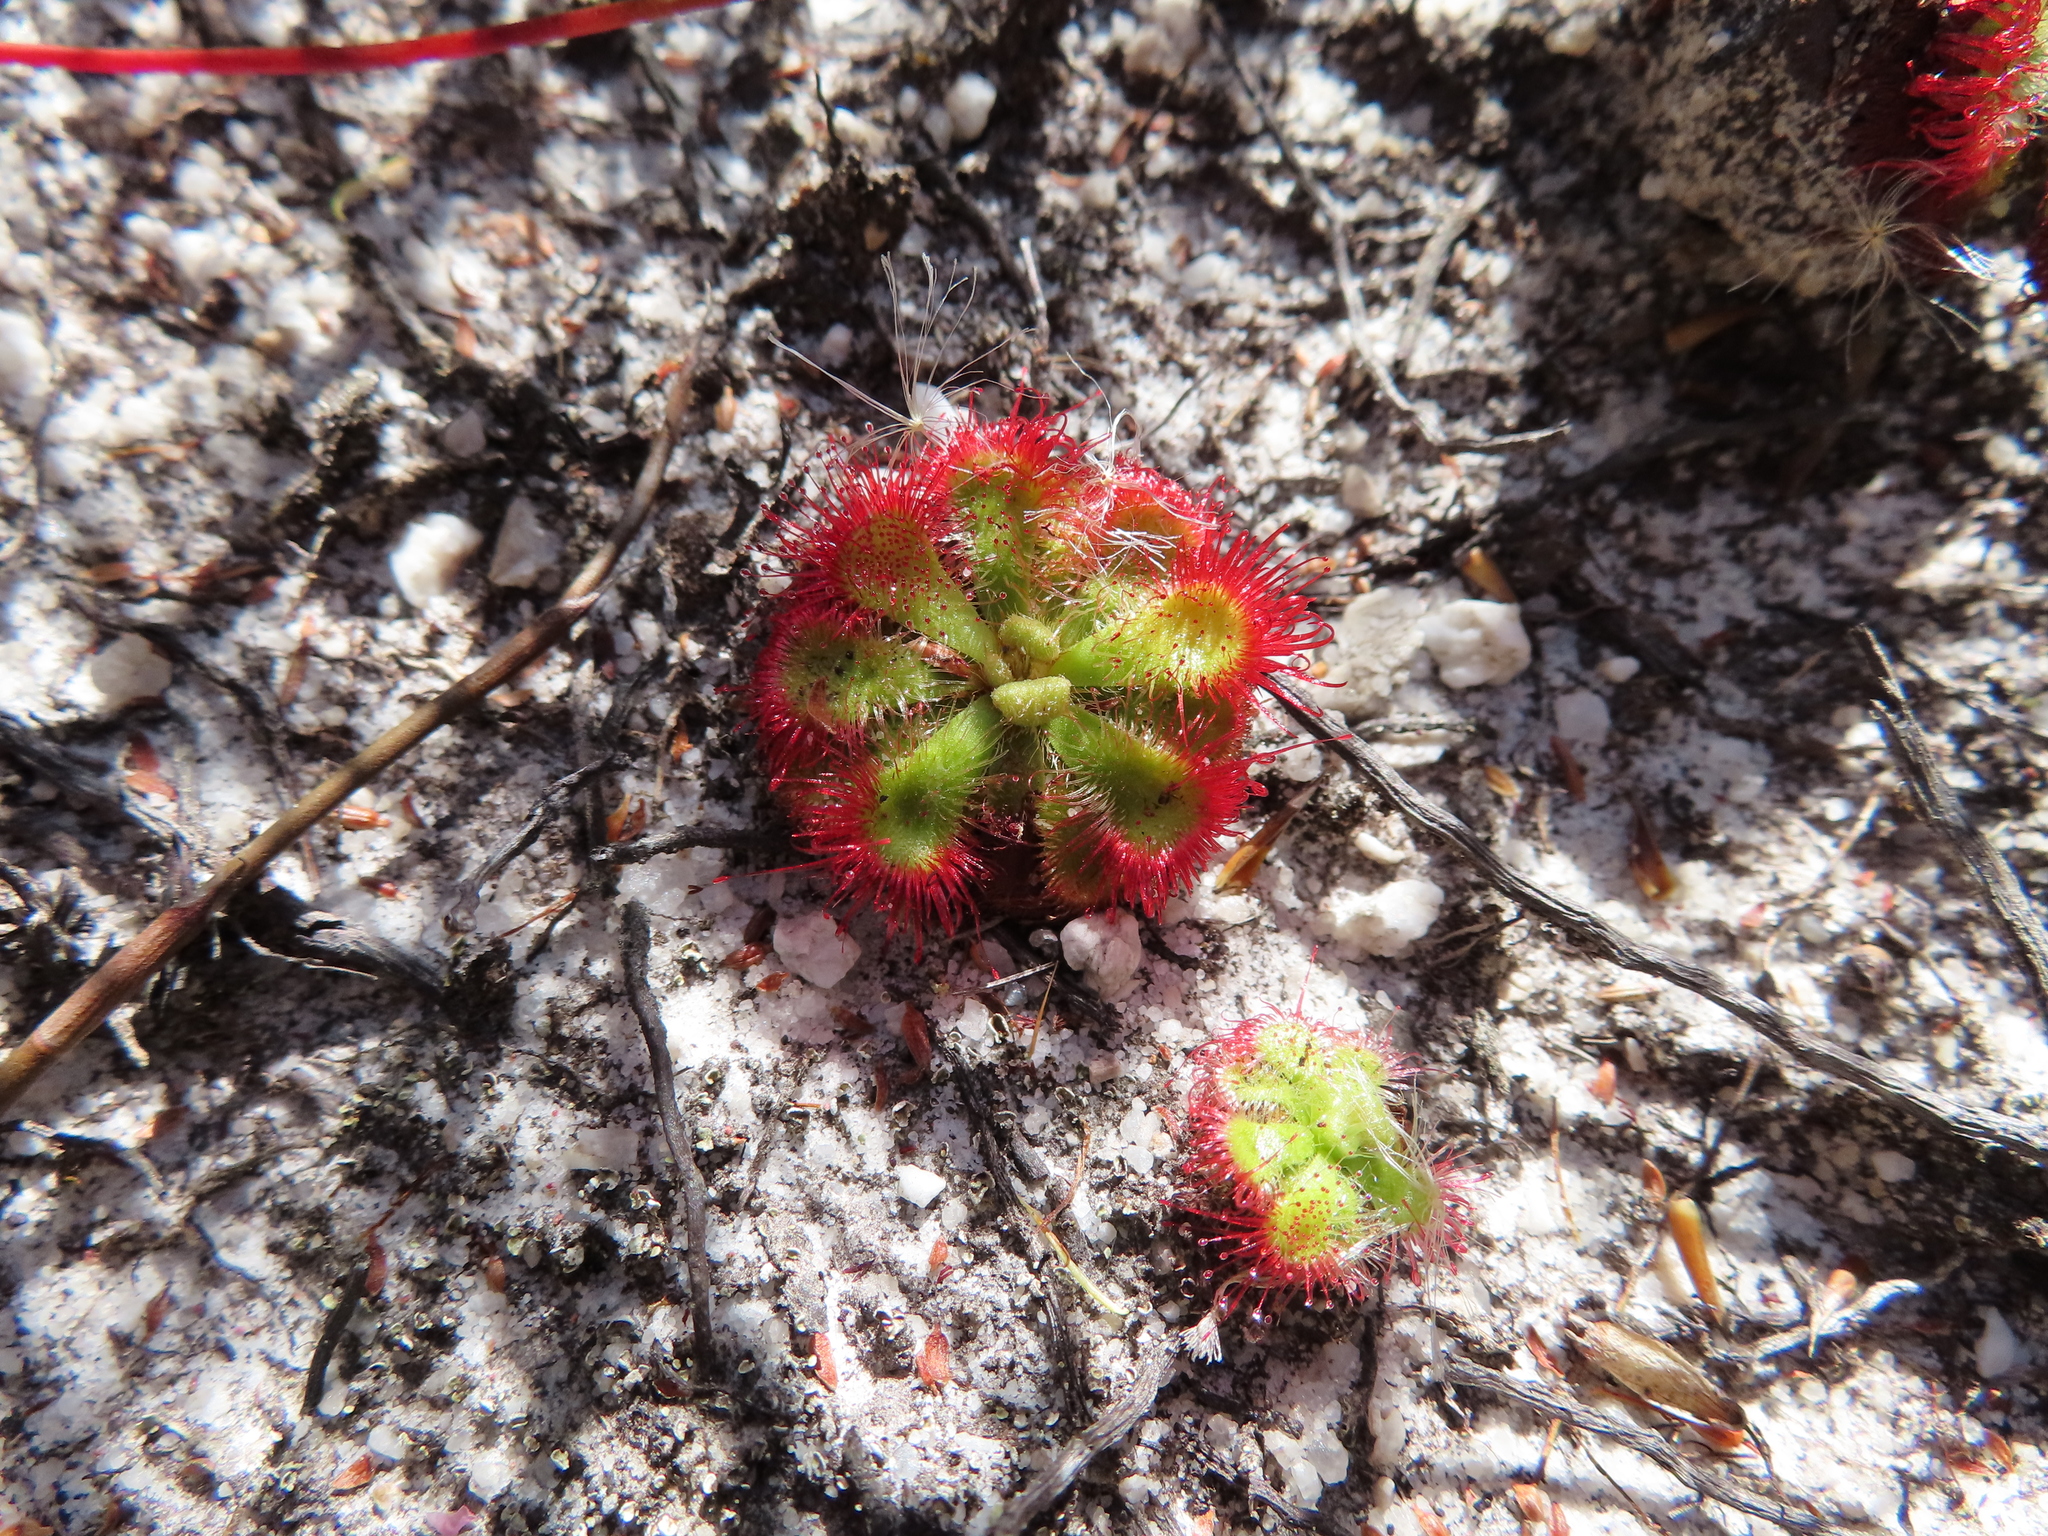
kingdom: Plantae
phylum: Tracheophyta
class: Magnoliopsida
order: Caryophyllales
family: Droseraceae
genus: Drosera
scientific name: Drosera xerophila
